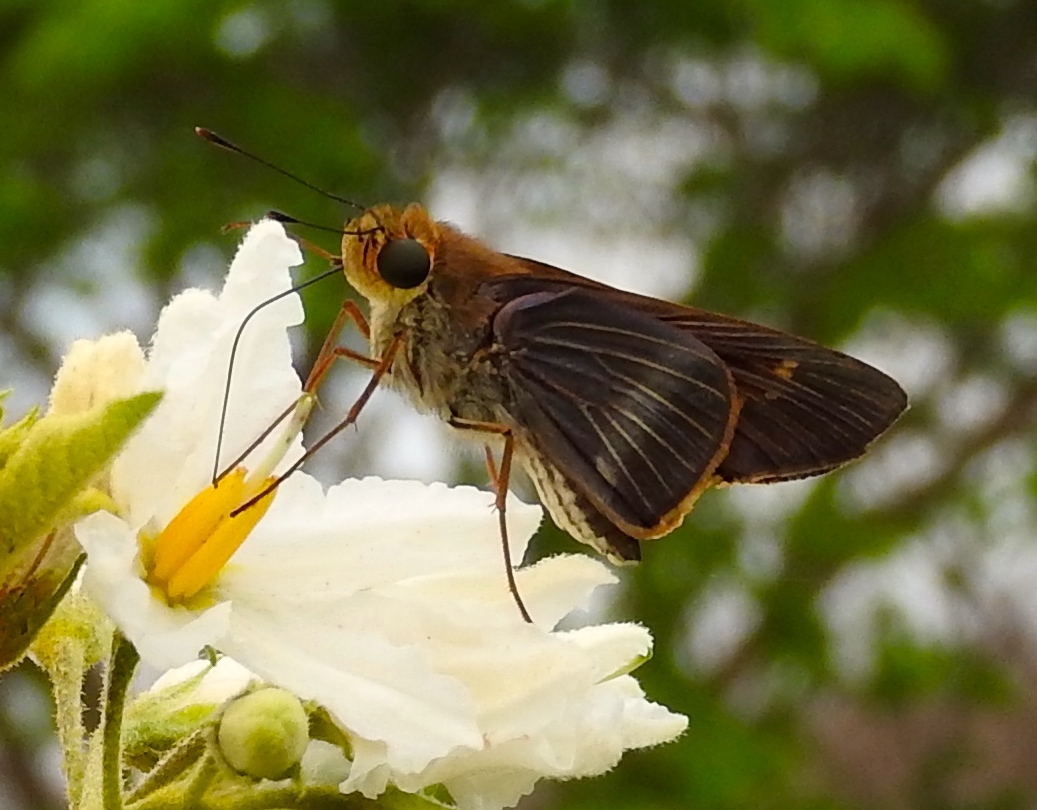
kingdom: Animalia
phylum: Arthropoda
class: Insecta
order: Lepidoptera
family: Hesperiidae
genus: Panoquina
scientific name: Panoquina fusina
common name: Evans' skipper
